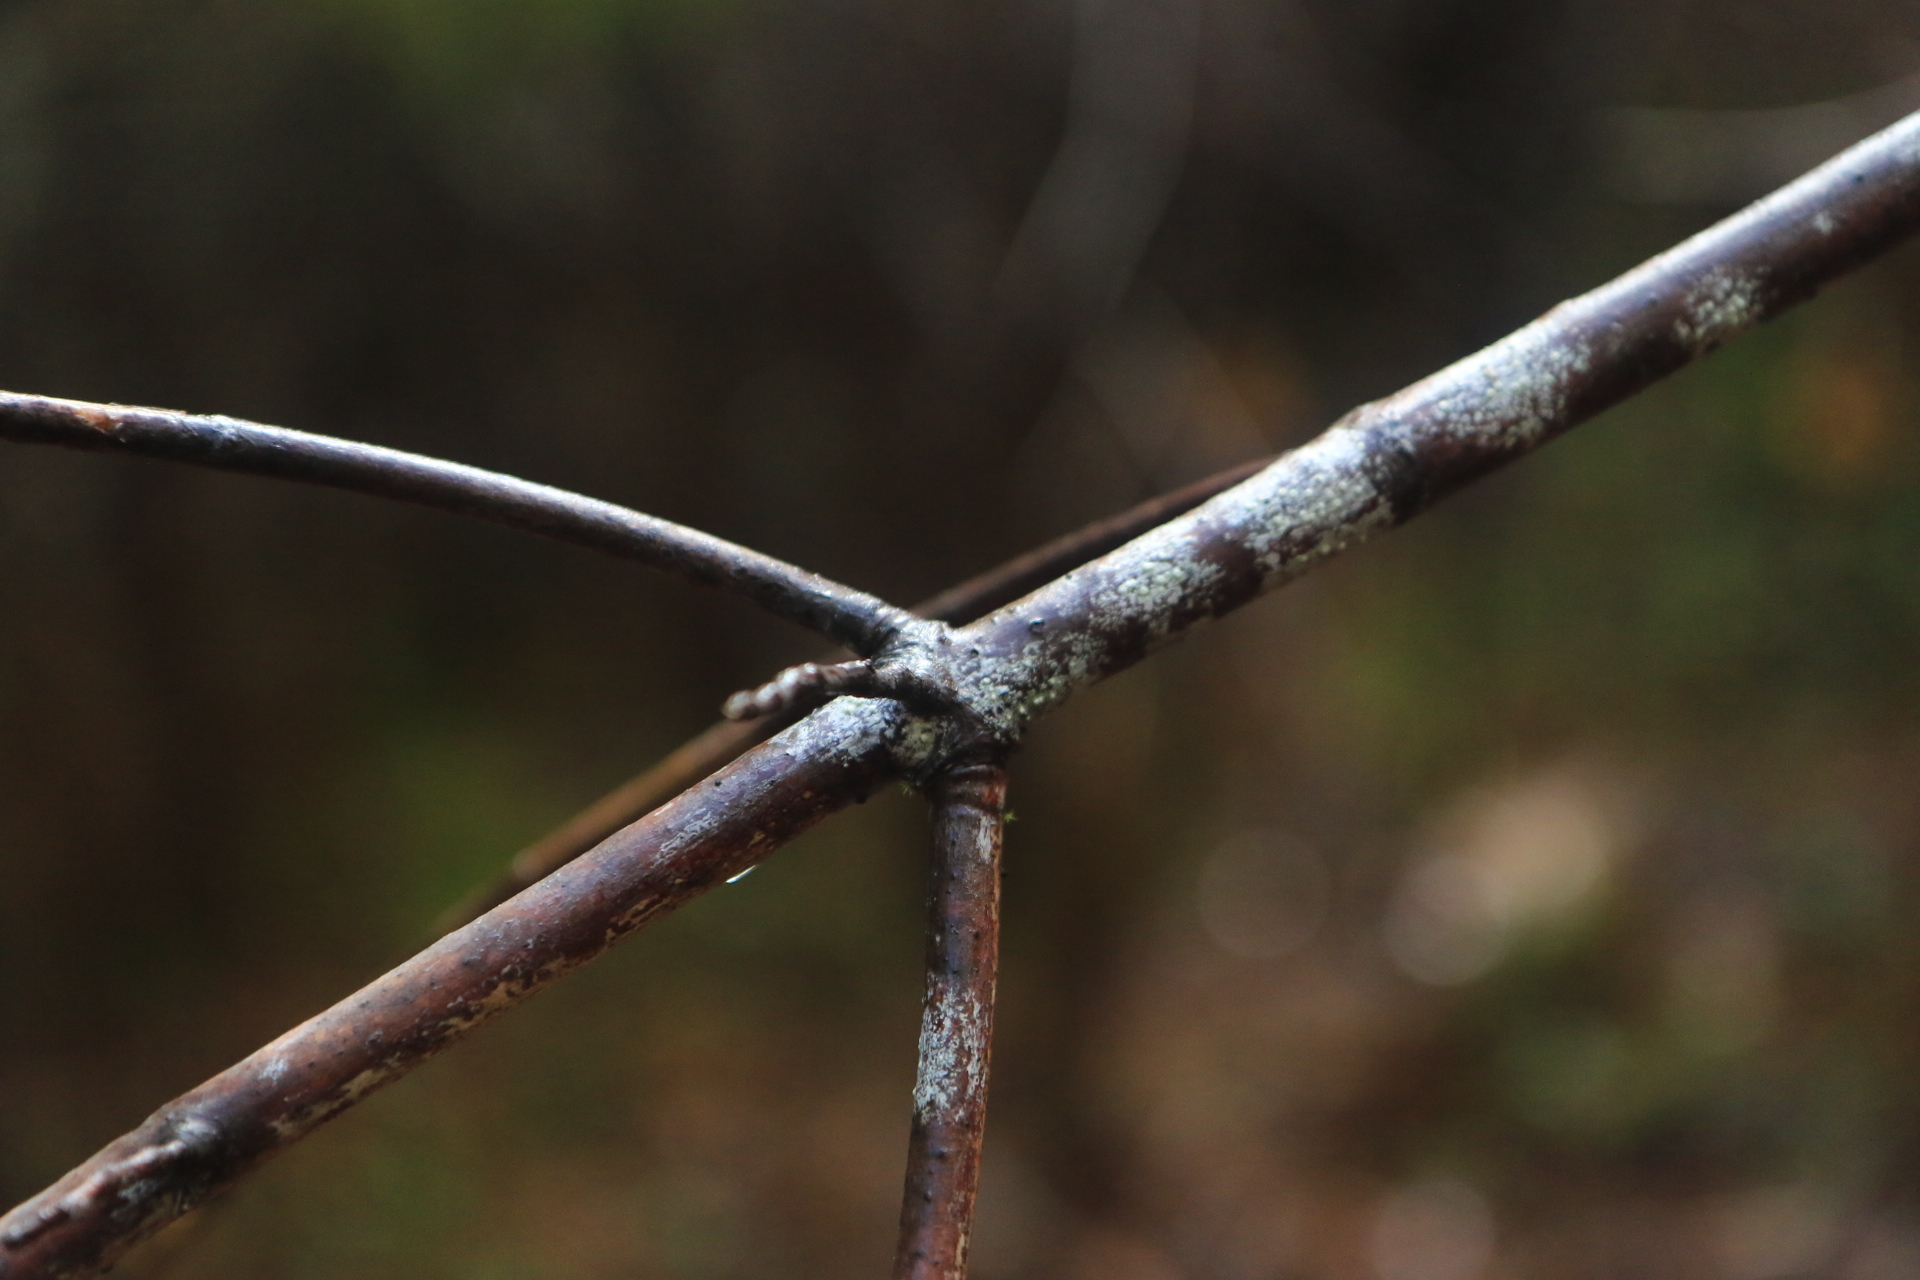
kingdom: Plantae
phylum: Tracheophyta
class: Magnoliopsida
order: Sapindales
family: Sapindaceae
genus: Acer
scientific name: Acer macrophyllum
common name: Oregon maple
